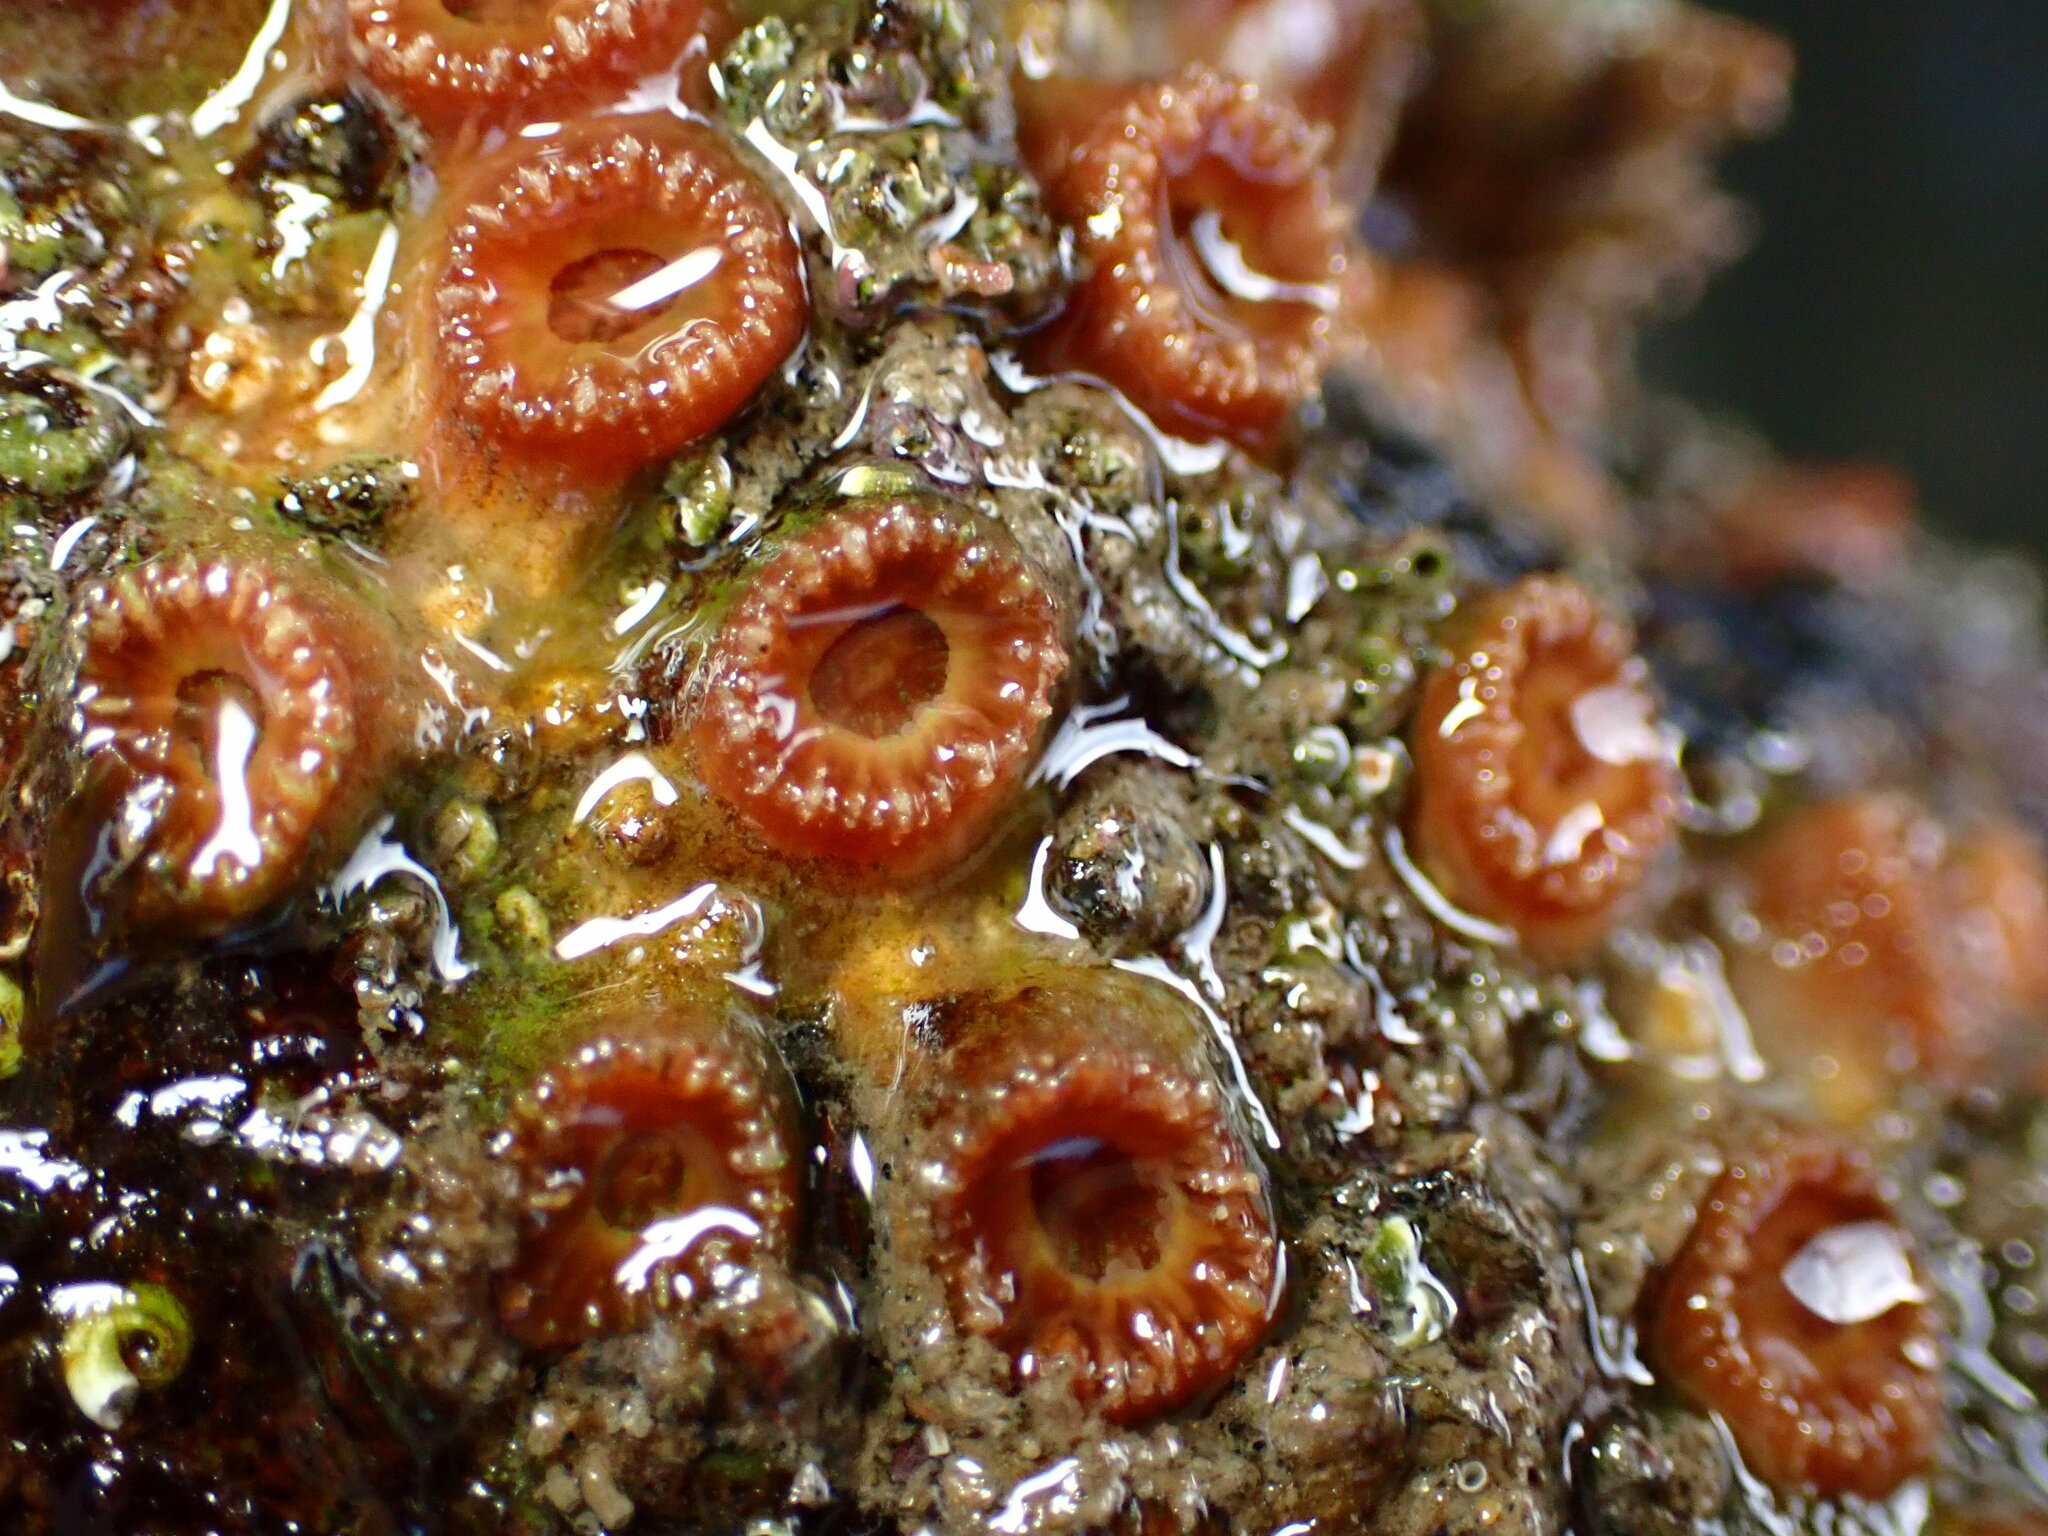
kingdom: Animalia
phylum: Cnidaria
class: Anthozoa
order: Scleractinia
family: Astrangiidae
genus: Astrangia
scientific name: Astrangia haimei
